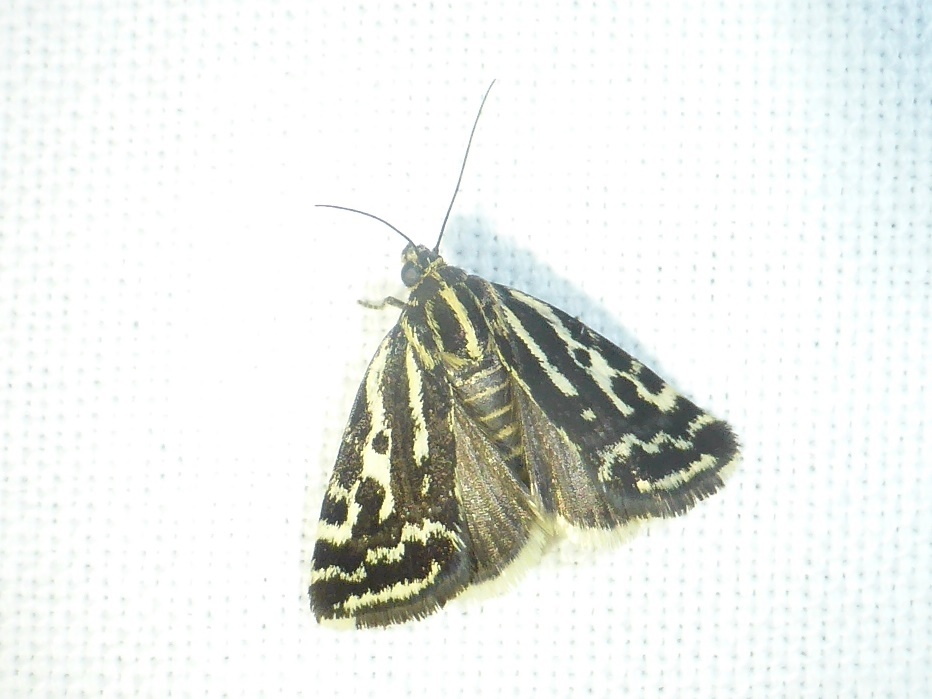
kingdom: Animalia
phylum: Arthropoda
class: Insecta
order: Lepidoptera
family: Noctuidae
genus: Acontia
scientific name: Acontia trabealis
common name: Spotted sulphur
